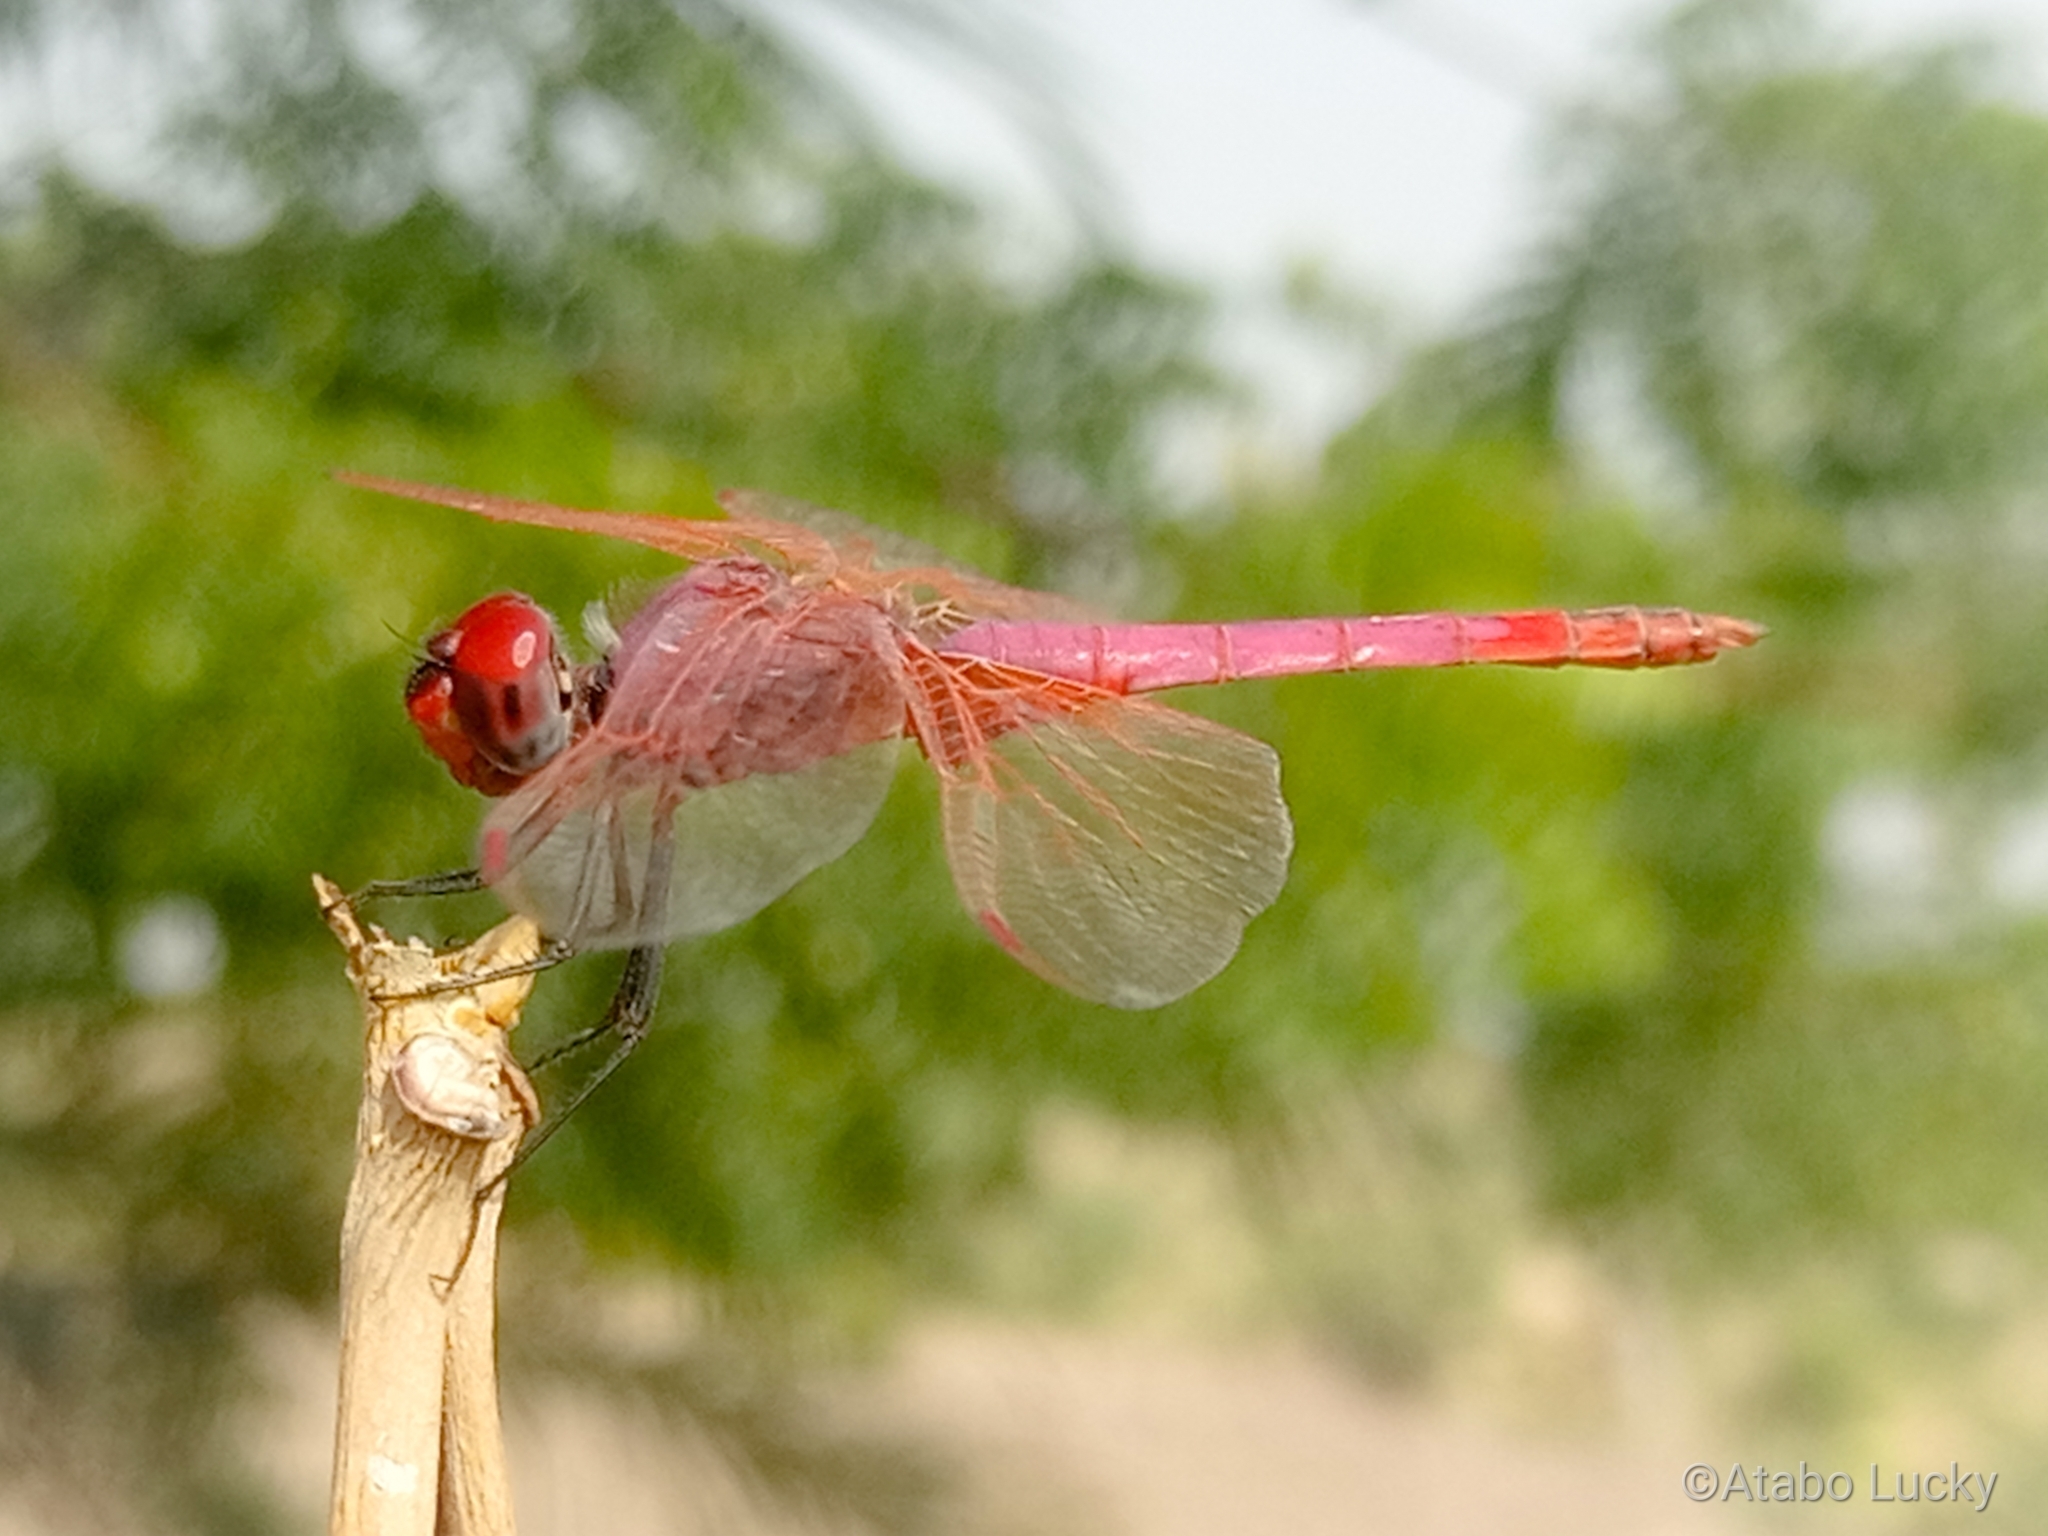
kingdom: Animalia
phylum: Arthropoda
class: Insecta
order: Odonata
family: Libellulidae
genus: Trithemis
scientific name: Trithemis annulata
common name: Violet dropwing
